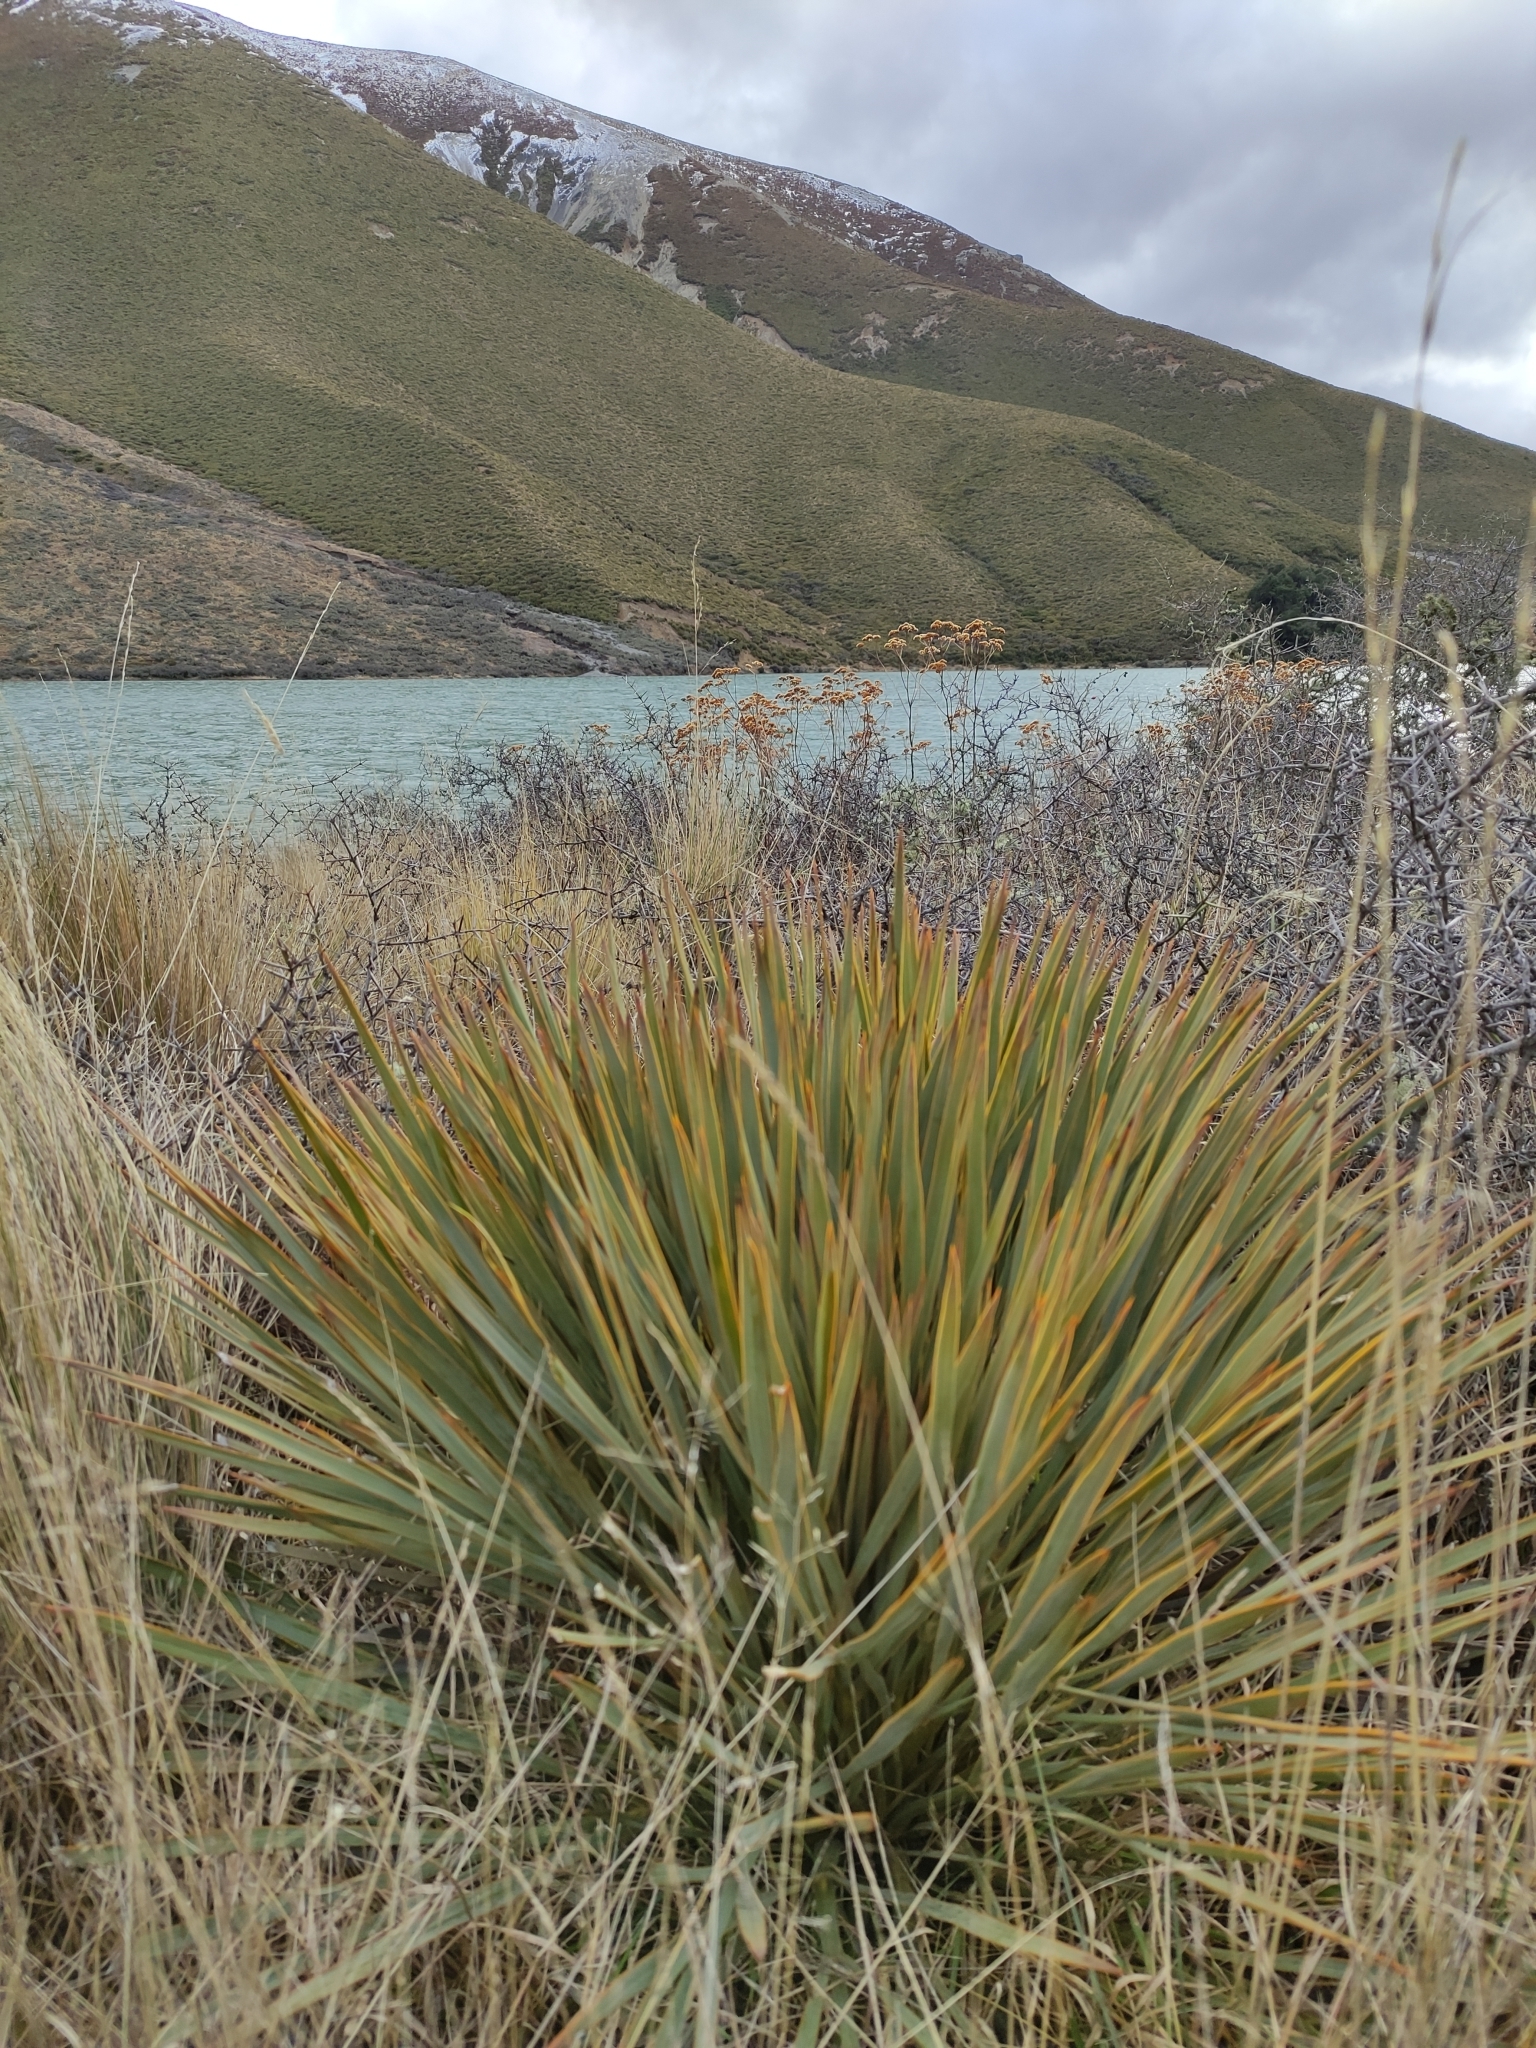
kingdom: Plantae
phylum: Tracheophyta
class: Magnoliopsida
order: Apiales
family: Apiaceae
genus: Aciphylla
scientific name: Aciphylla aurea
